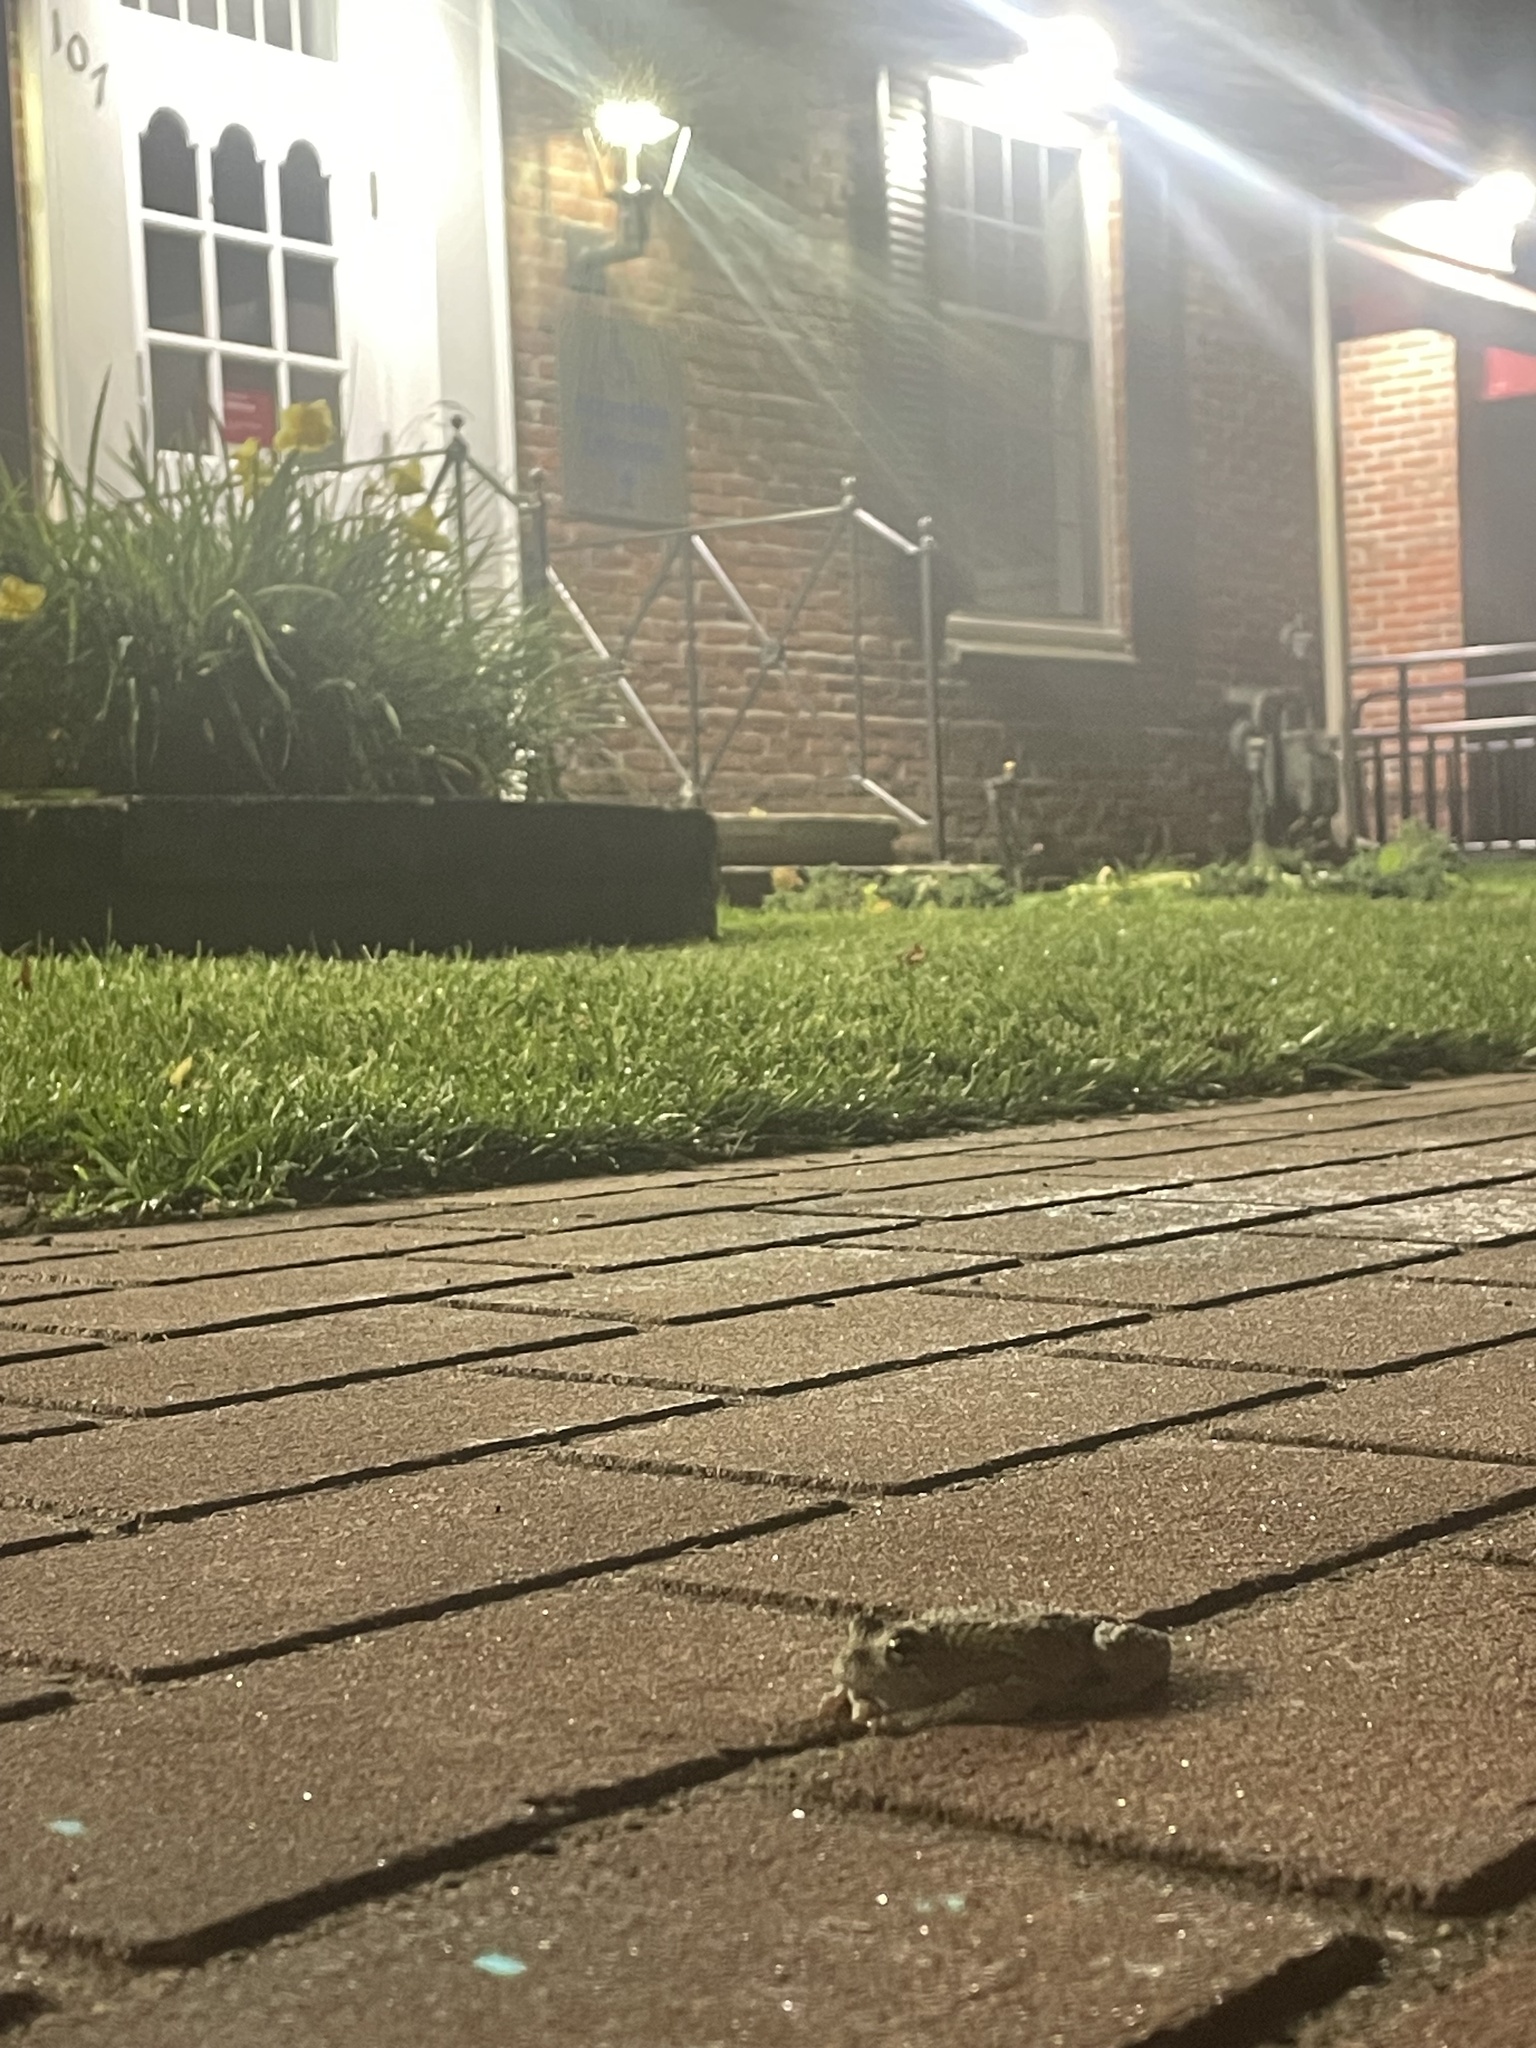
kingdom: Animalia
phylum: Chordata
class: Amphibia
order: Anura
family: Hylidae
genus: Dryophytes
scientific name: Dryophytes versicolor
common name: Gray treefrog
